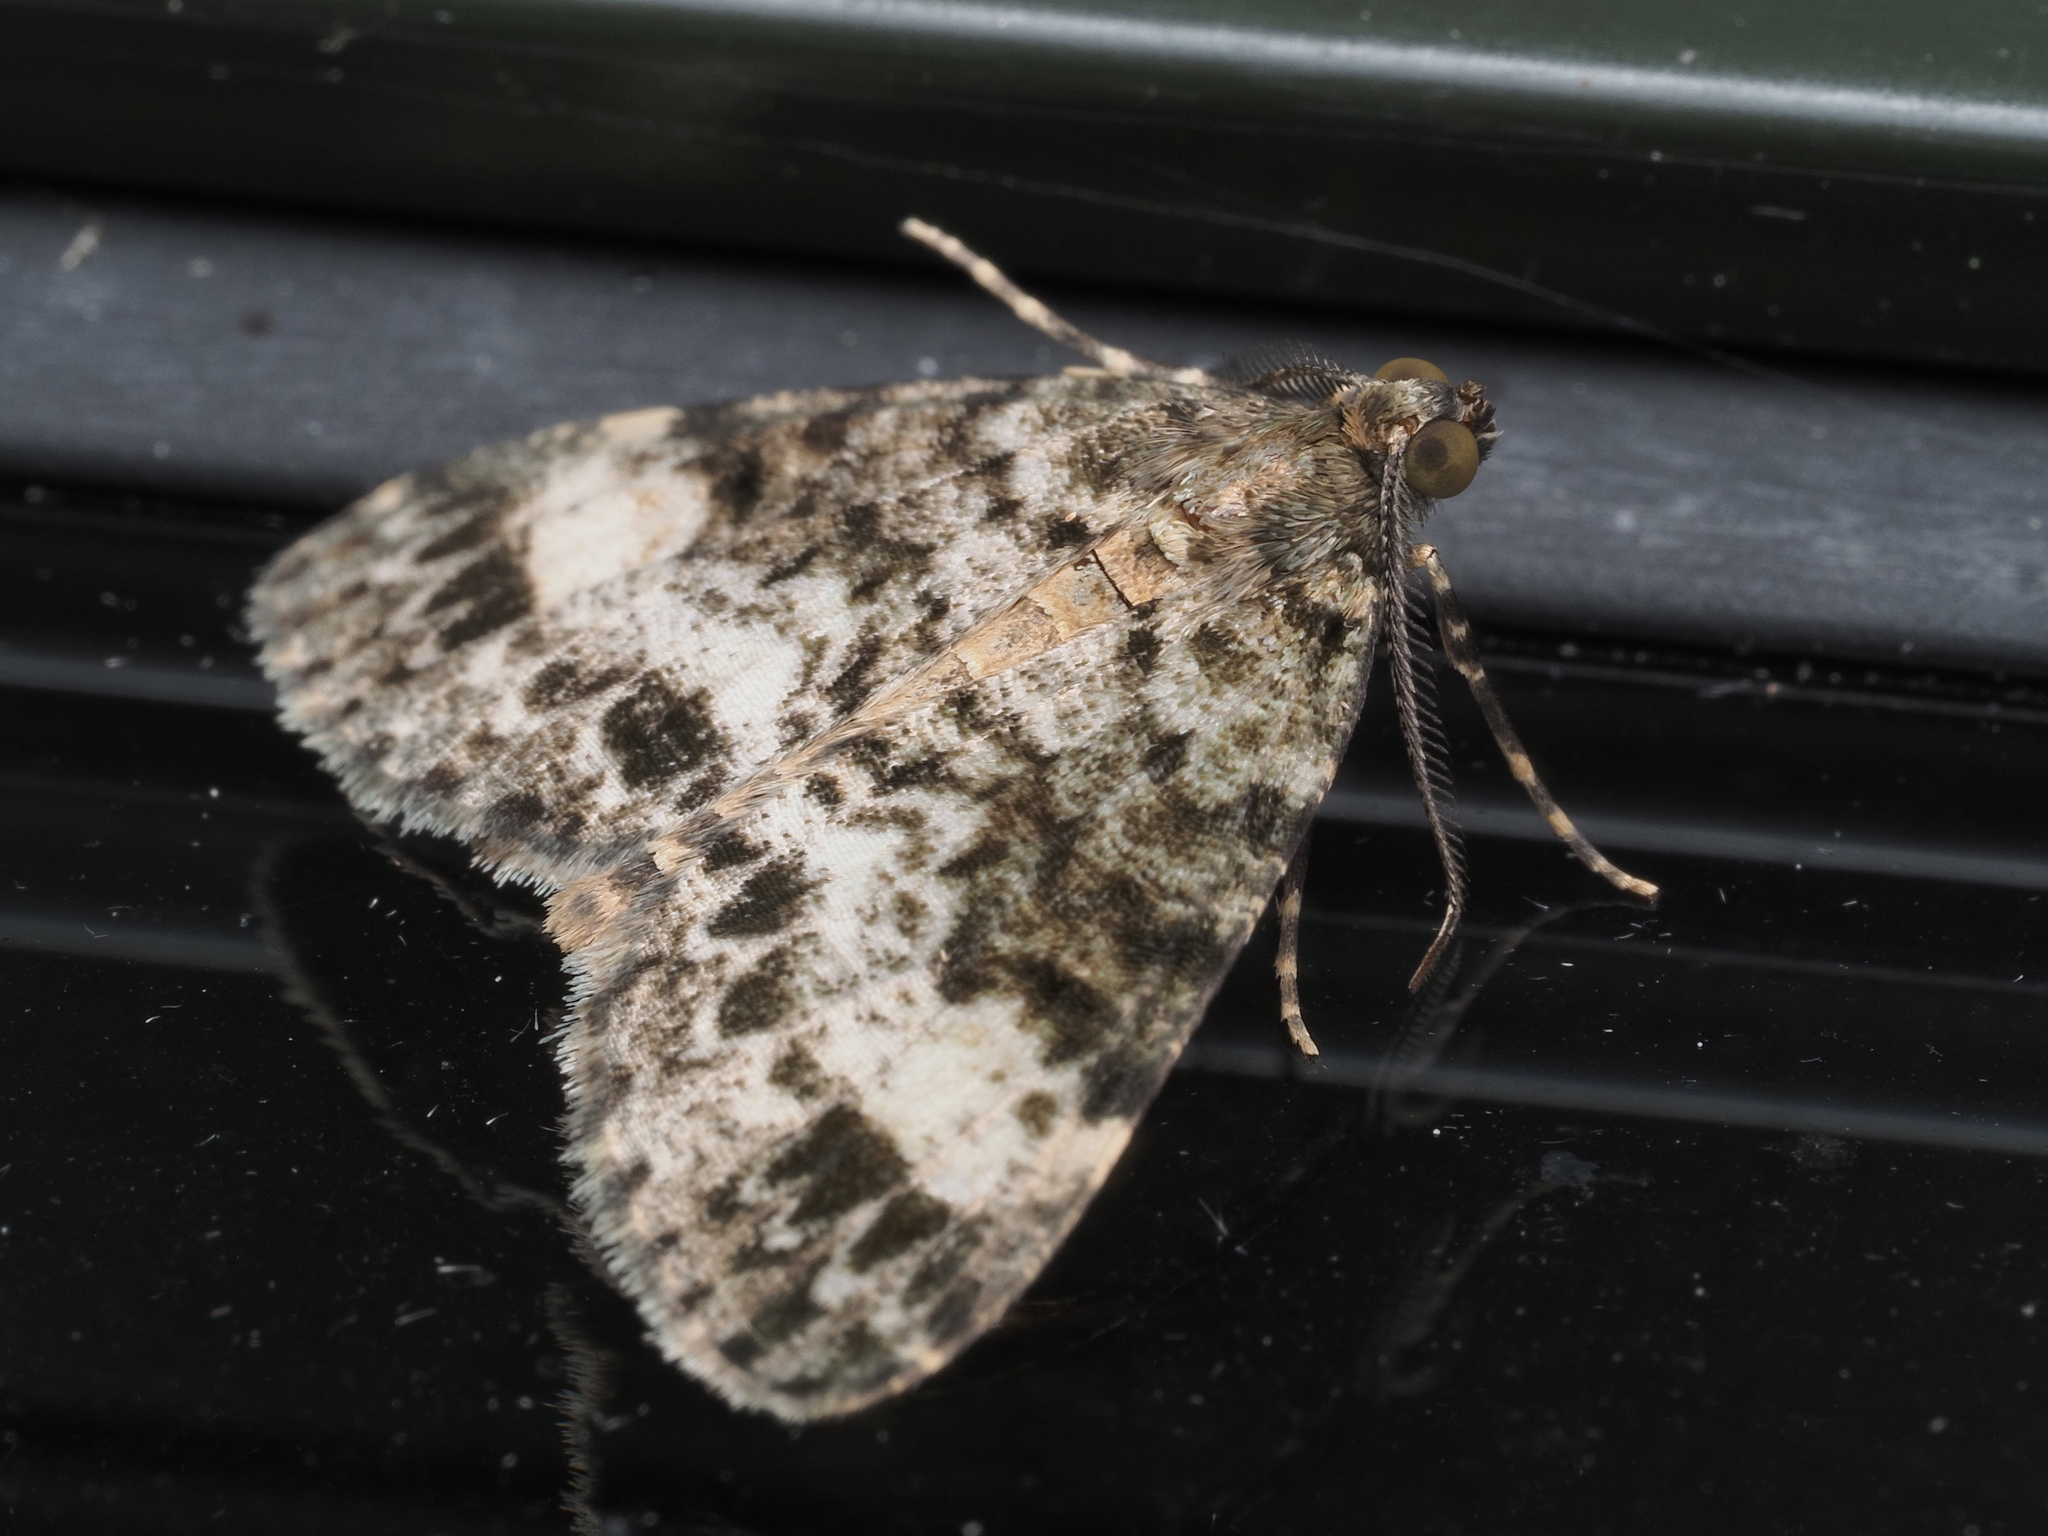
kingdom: Animalia
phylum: Arthropoda
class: Insecta
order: Lepidoptera
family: Geometridae
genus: Pseudocoremia
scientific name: Pseudocoremia indistincta
